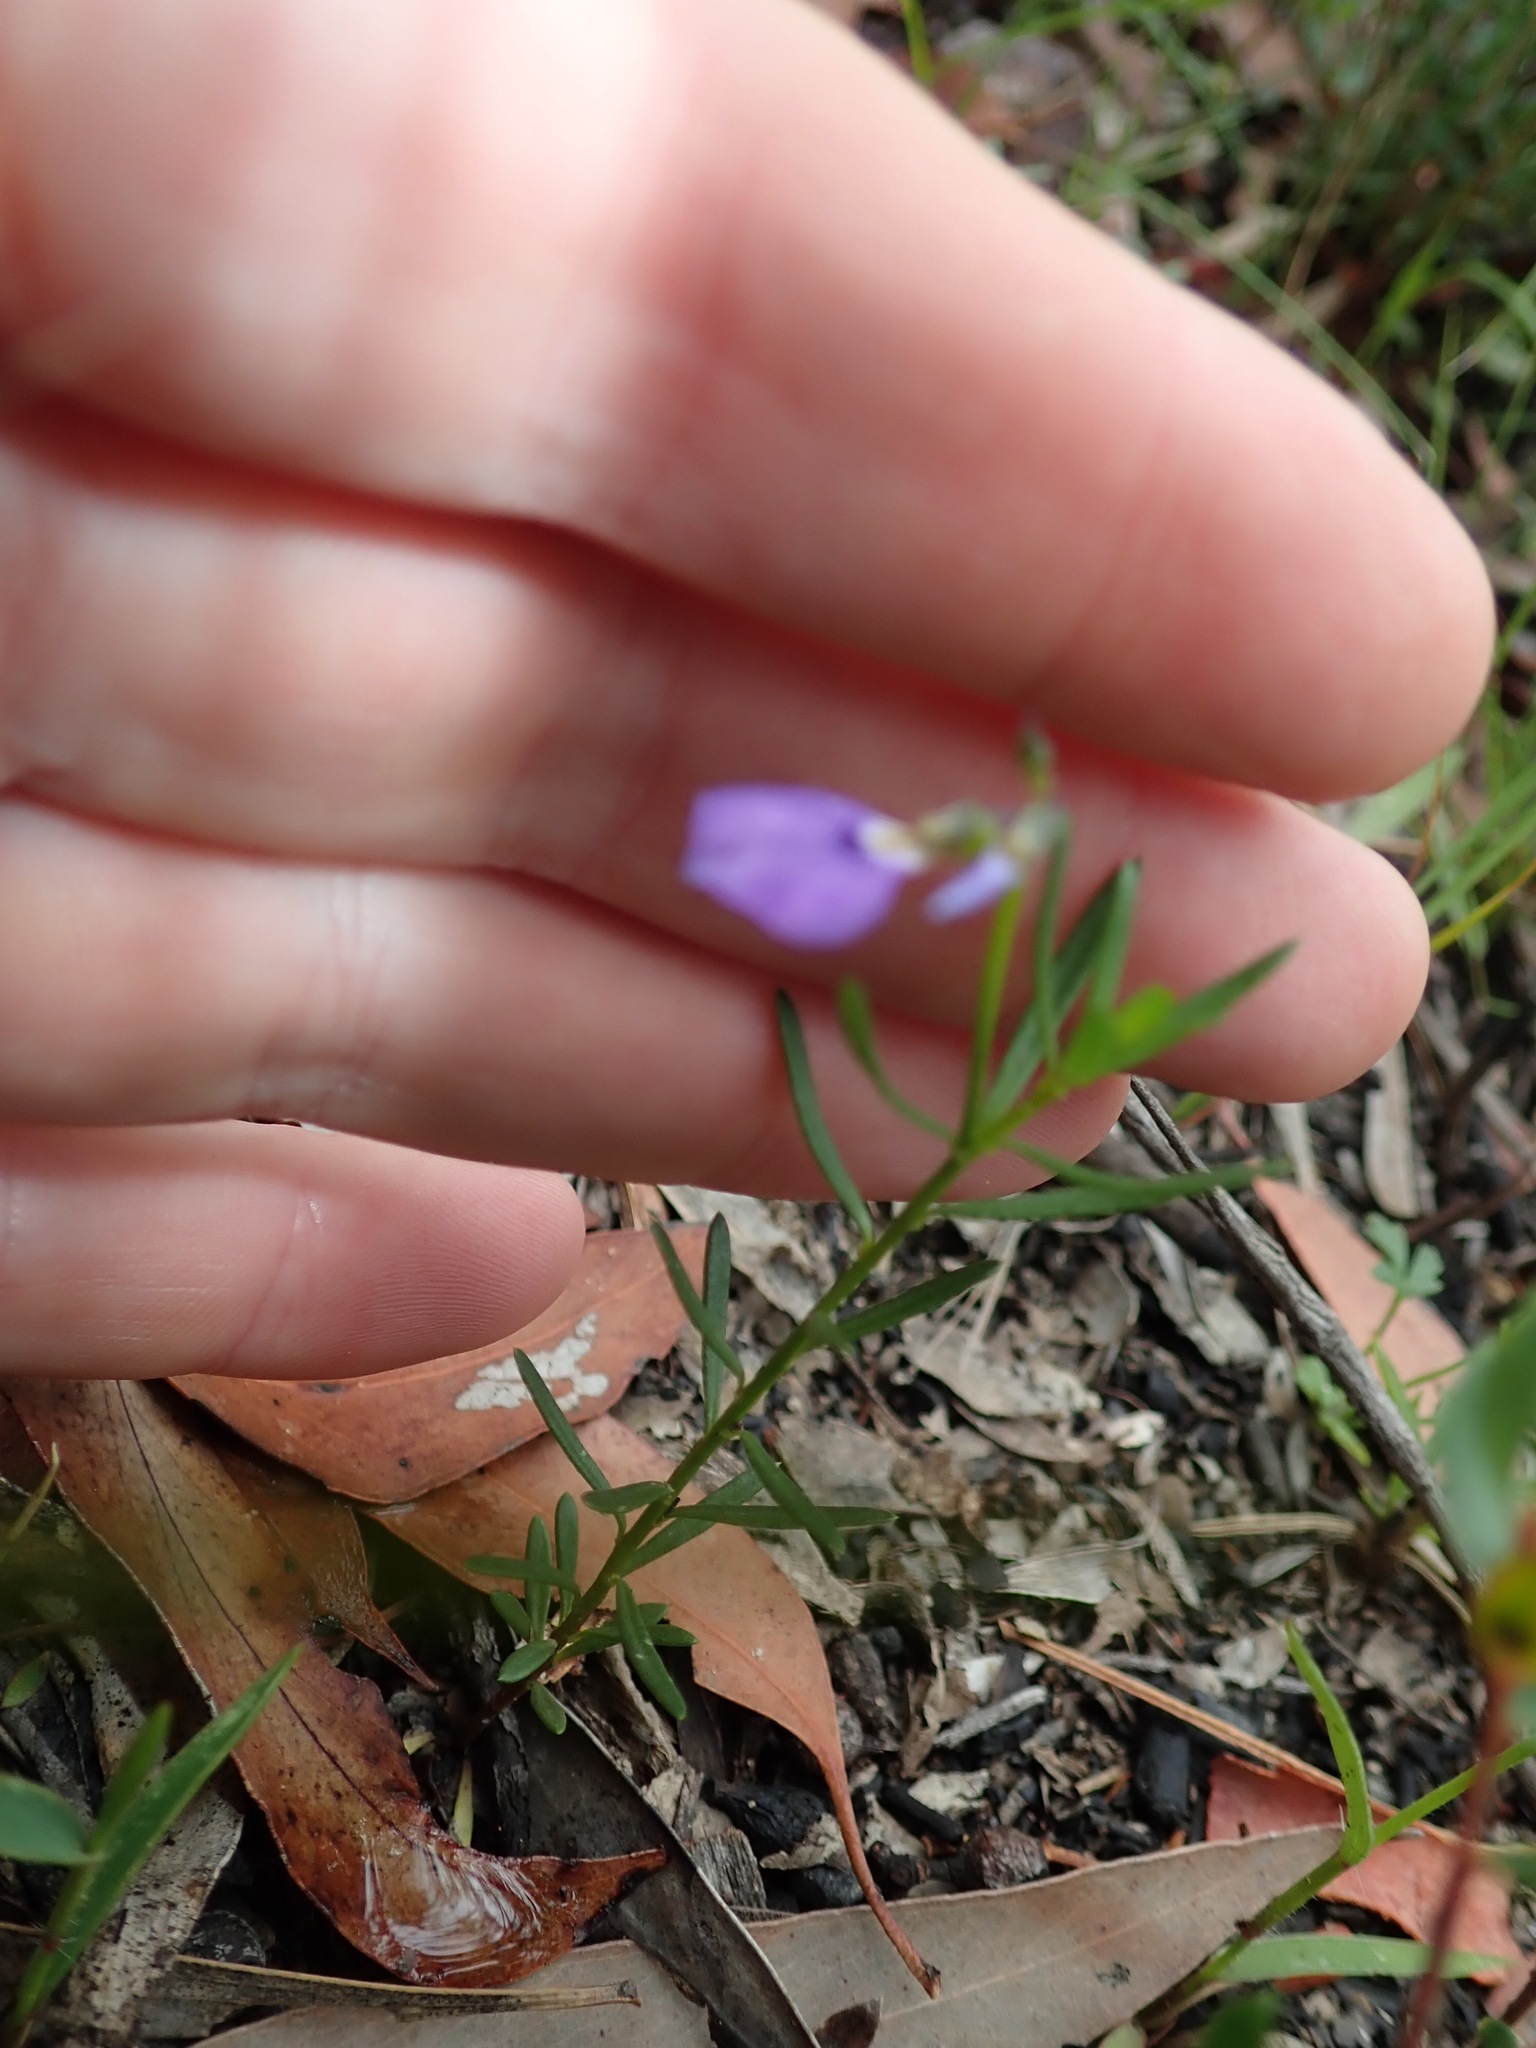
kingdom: Plantae
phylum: Tracheophyta
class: Magnoliopsida
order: Malpighiales
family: Violaceae
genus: Pigea
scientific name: Pigea monopetala
